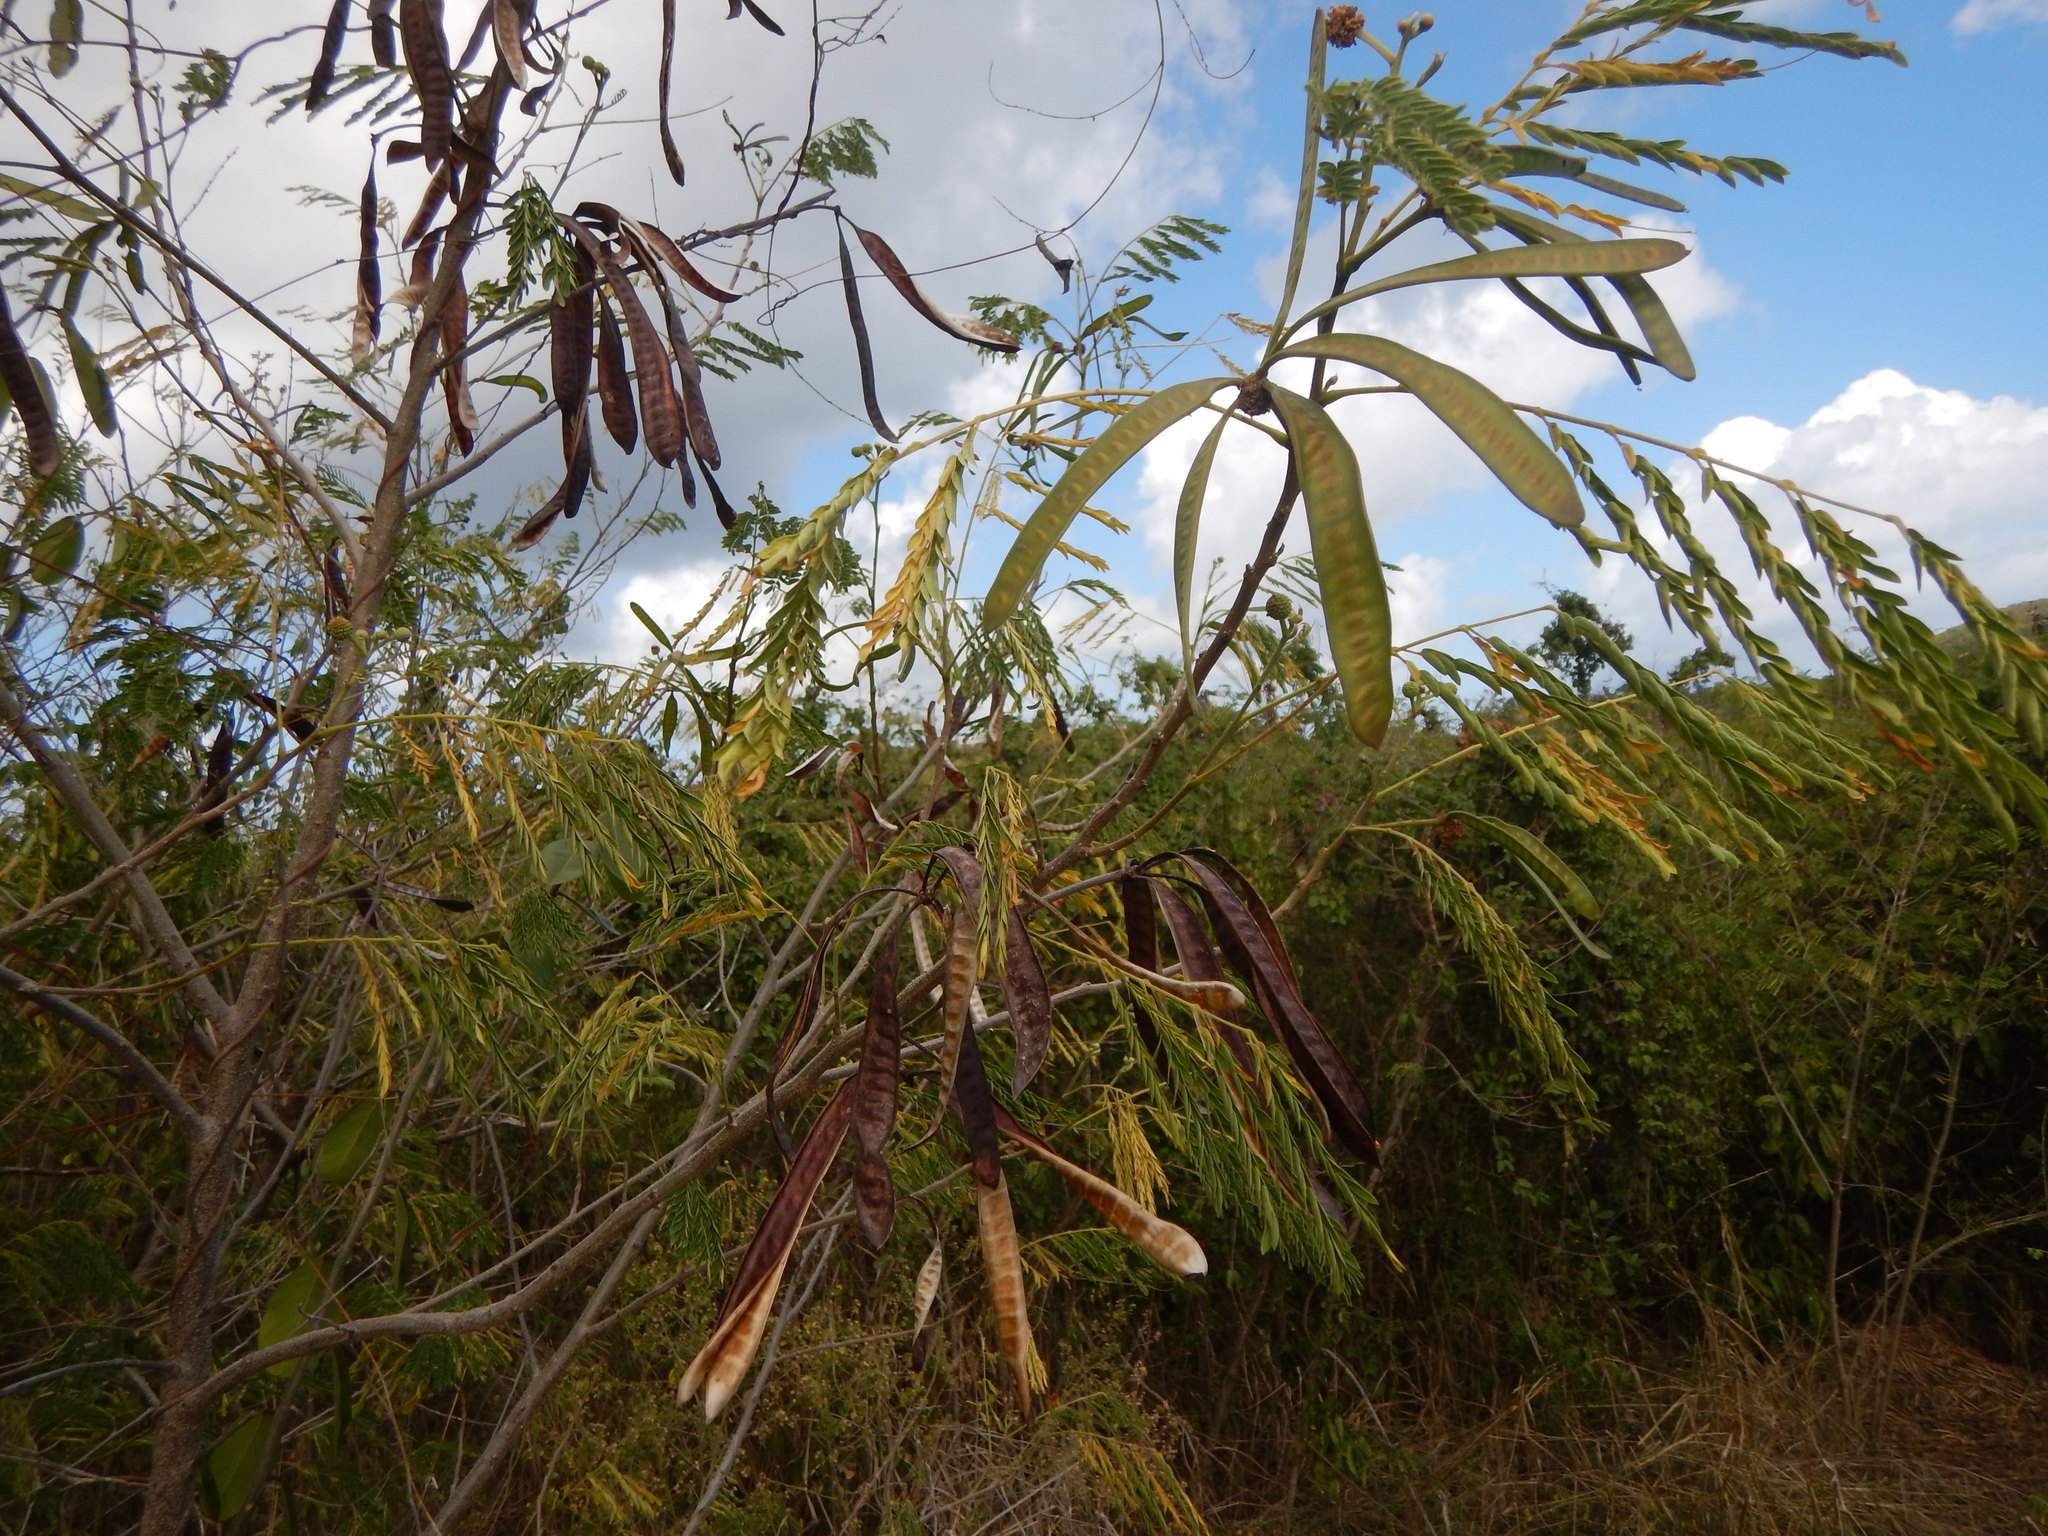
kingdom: Plantae
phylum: Tracheophyta
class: Magnoliopsida
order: Fabales
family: Fabaceae
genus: Leucaena
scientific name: Leucaena leucocephala
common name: White leadtree
